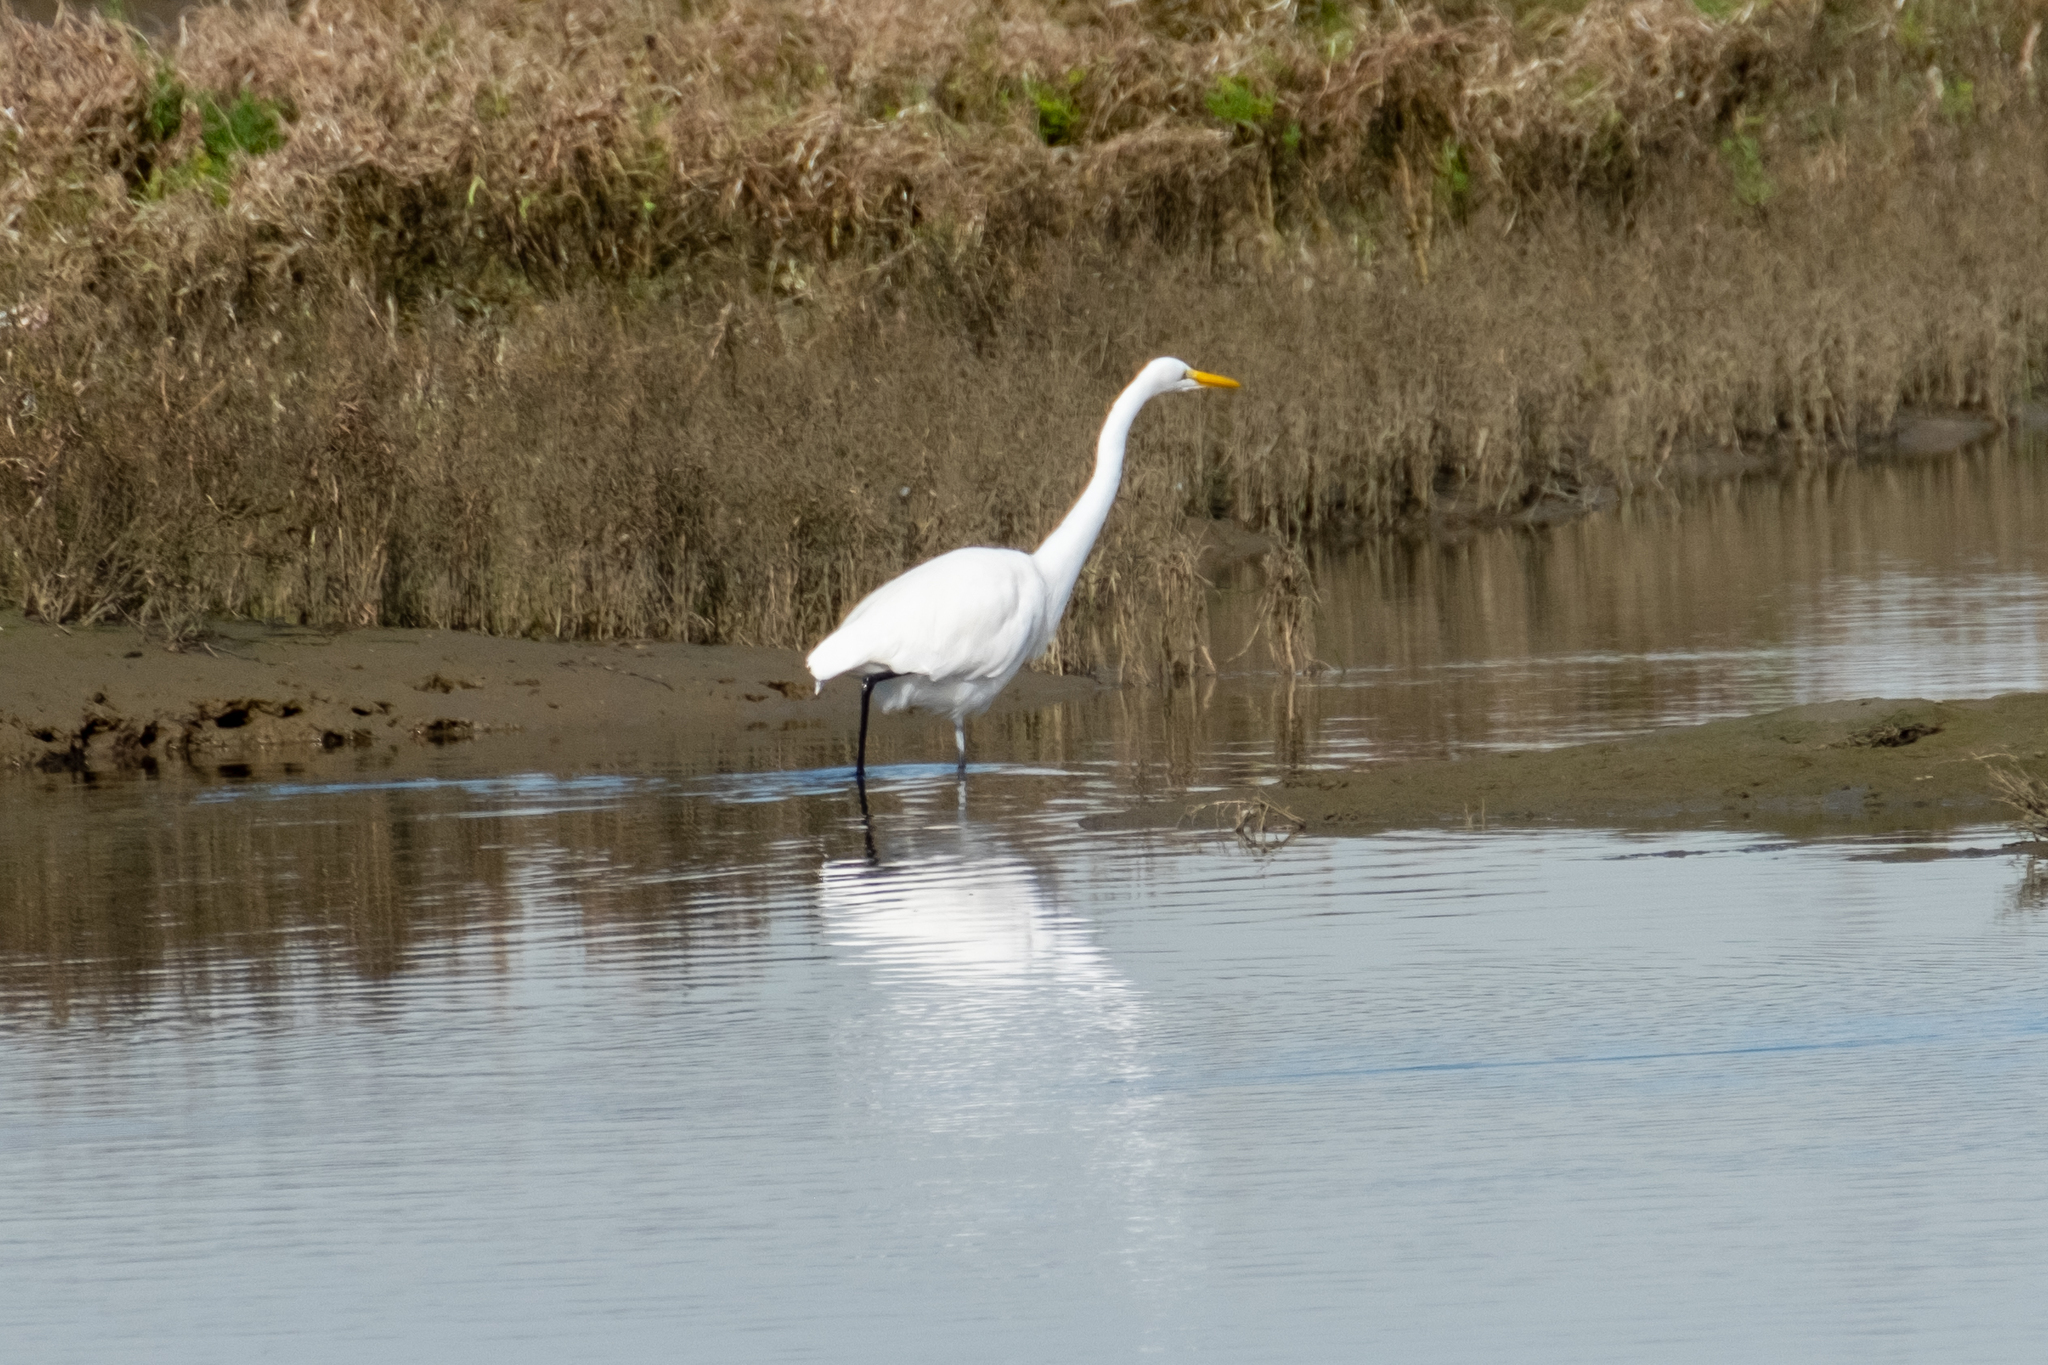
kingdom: Animalia
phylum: Chordata
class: Aves
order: Pelecaniformes
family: Ardeidae
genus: Ardea
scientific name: Ardea alba
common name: Great egret
